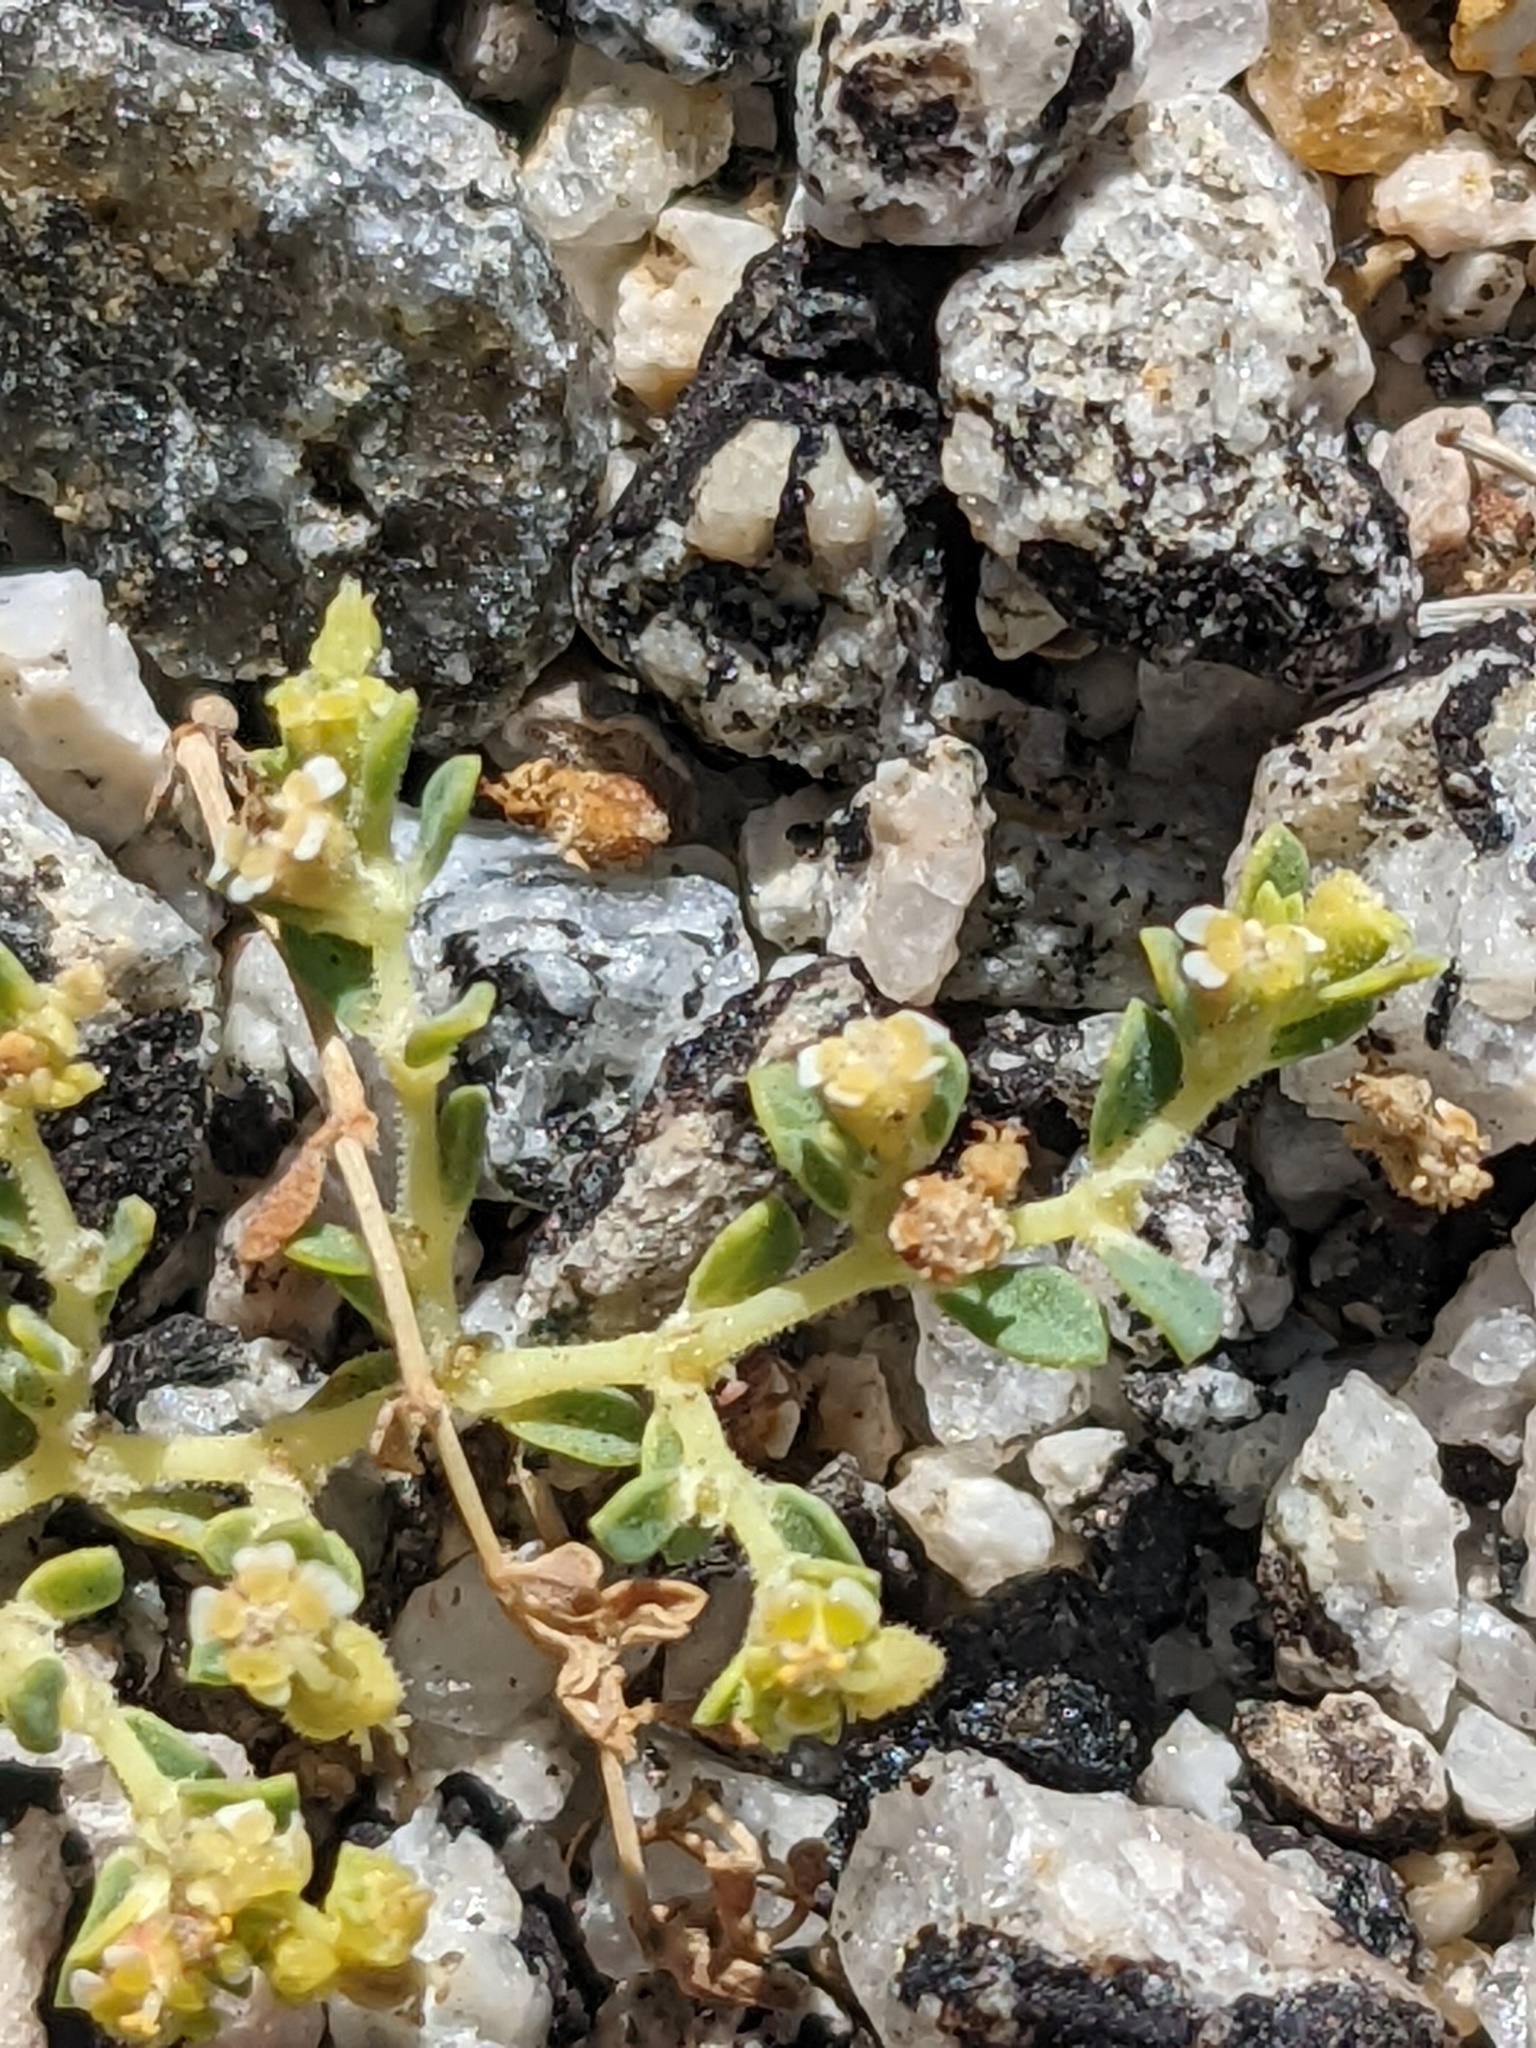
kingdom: Plantae
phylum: Tracheophyta
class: Magnoliopsida
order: Malpighiales
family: Euphorbiaceae
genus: Euphorbia
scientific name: Euphorbia polycarpa
